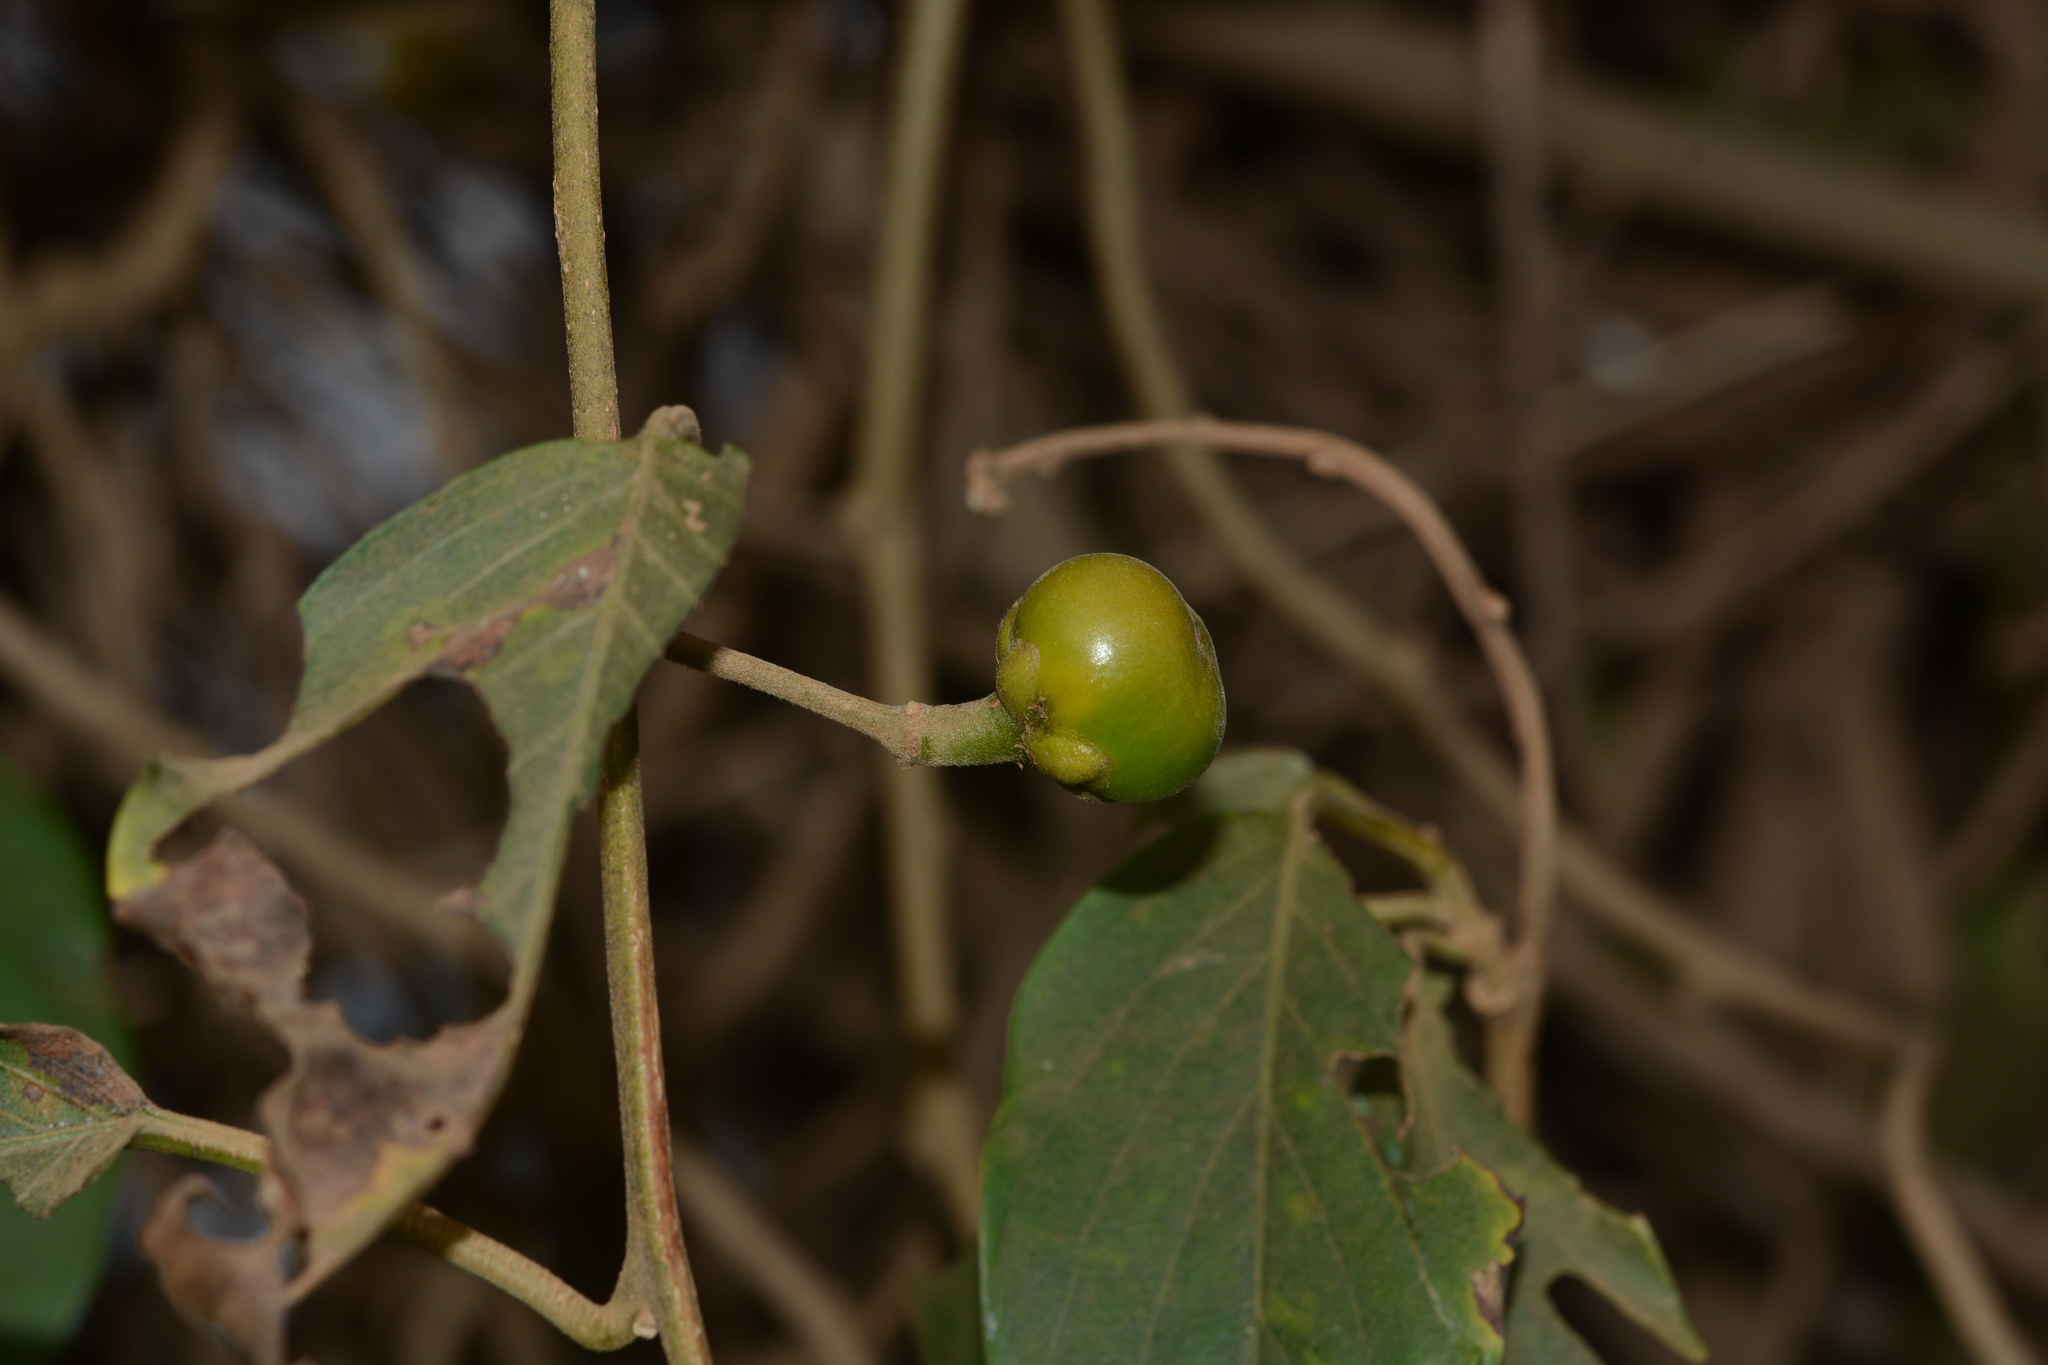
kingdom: Plantae
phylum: Tracheophyta
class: Magnoliopsida
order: Solanales
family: Convolvulaceae
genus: Argyreia
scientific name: Argyreia elliptica
